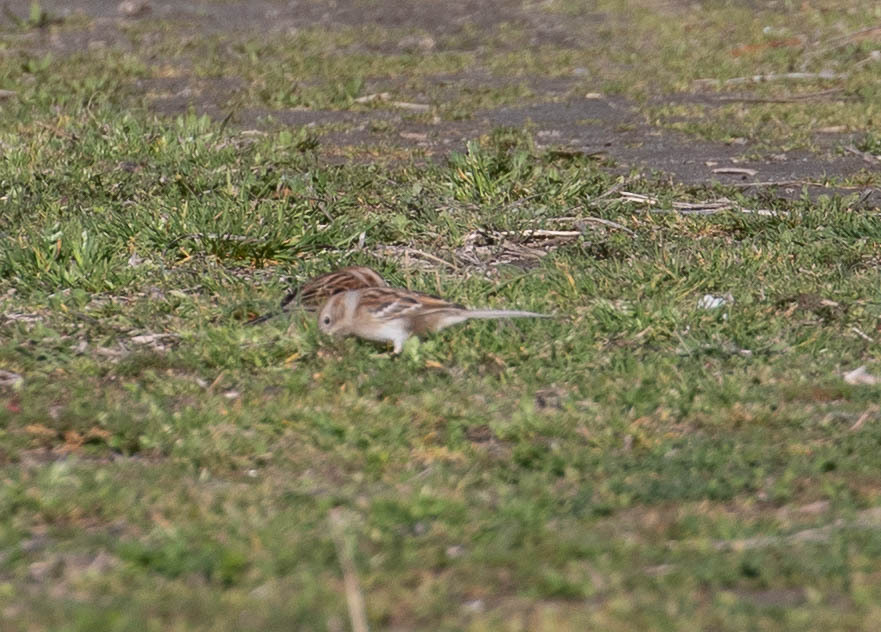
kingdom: Animalia
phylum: Chordata
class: Aves
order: Passeriformes
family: Passerellidae
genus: Spizella
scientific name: Spizella pusilla
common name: Field sparrow
